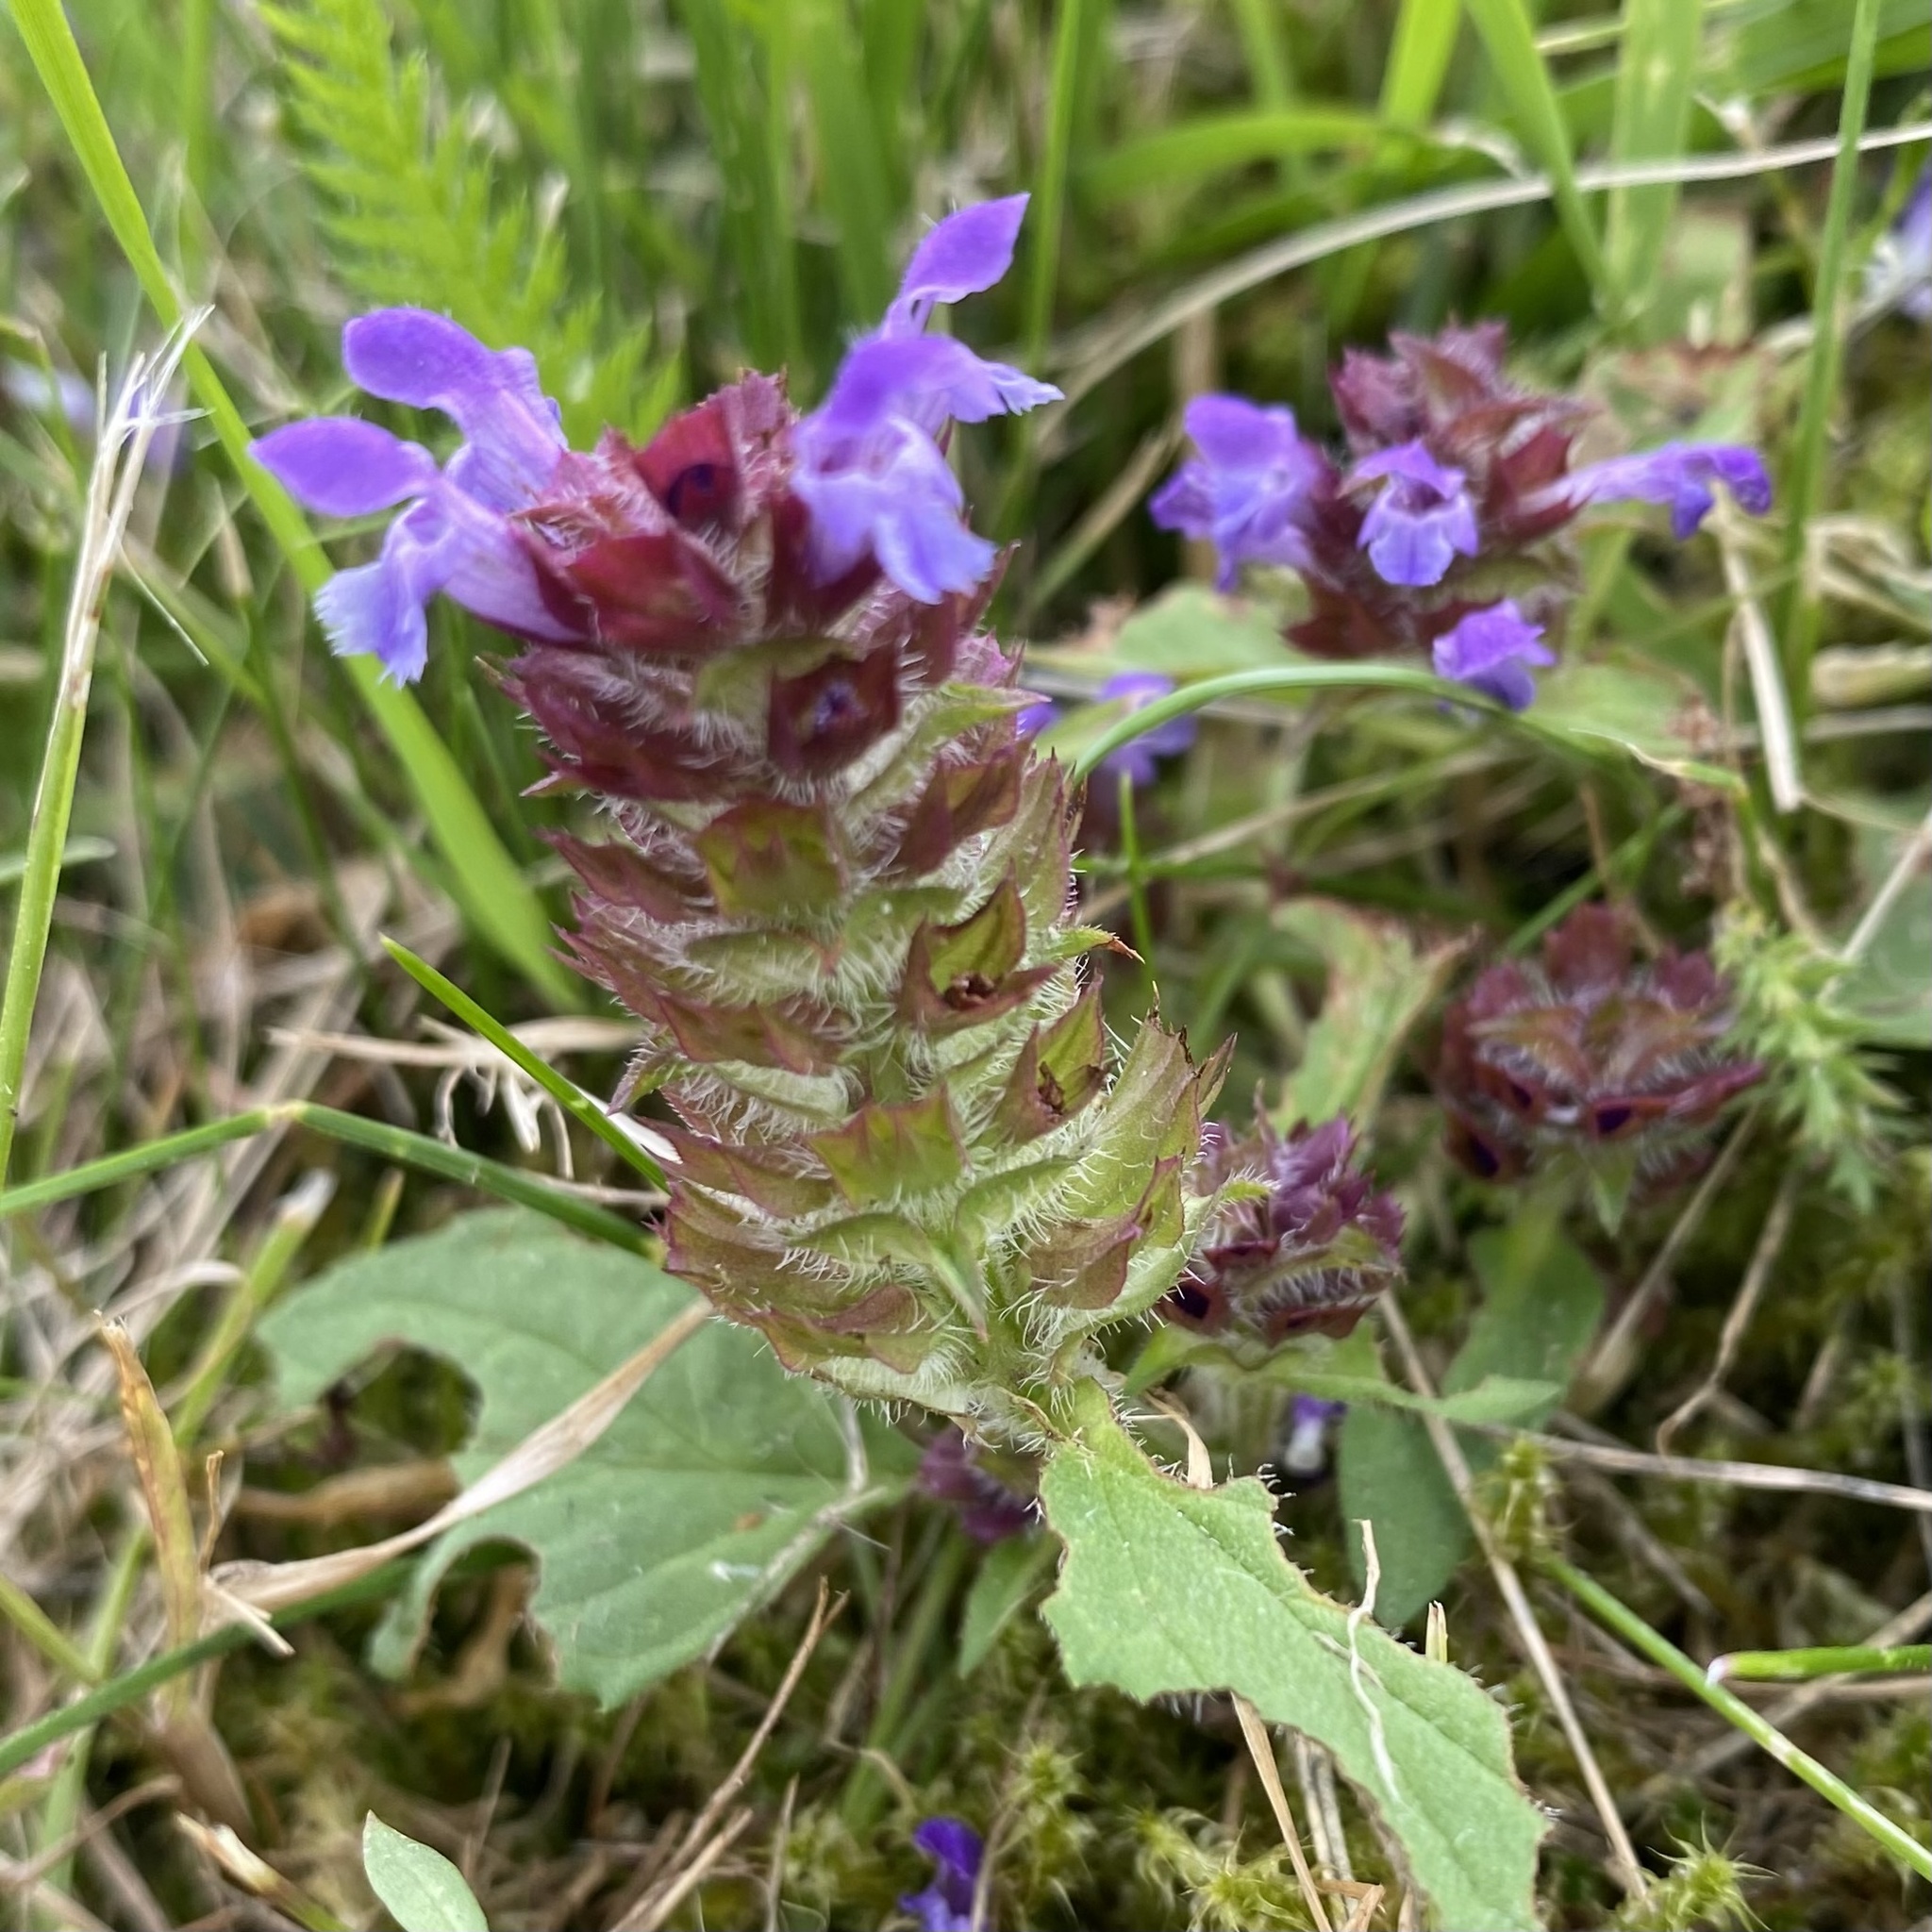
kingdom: Plantae
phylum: Tracheophyta
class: Magnoliopsida
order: Lamiales
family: Lamiaceae
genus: Prunella
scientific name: Prunella vulgaris
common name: Heal-all
